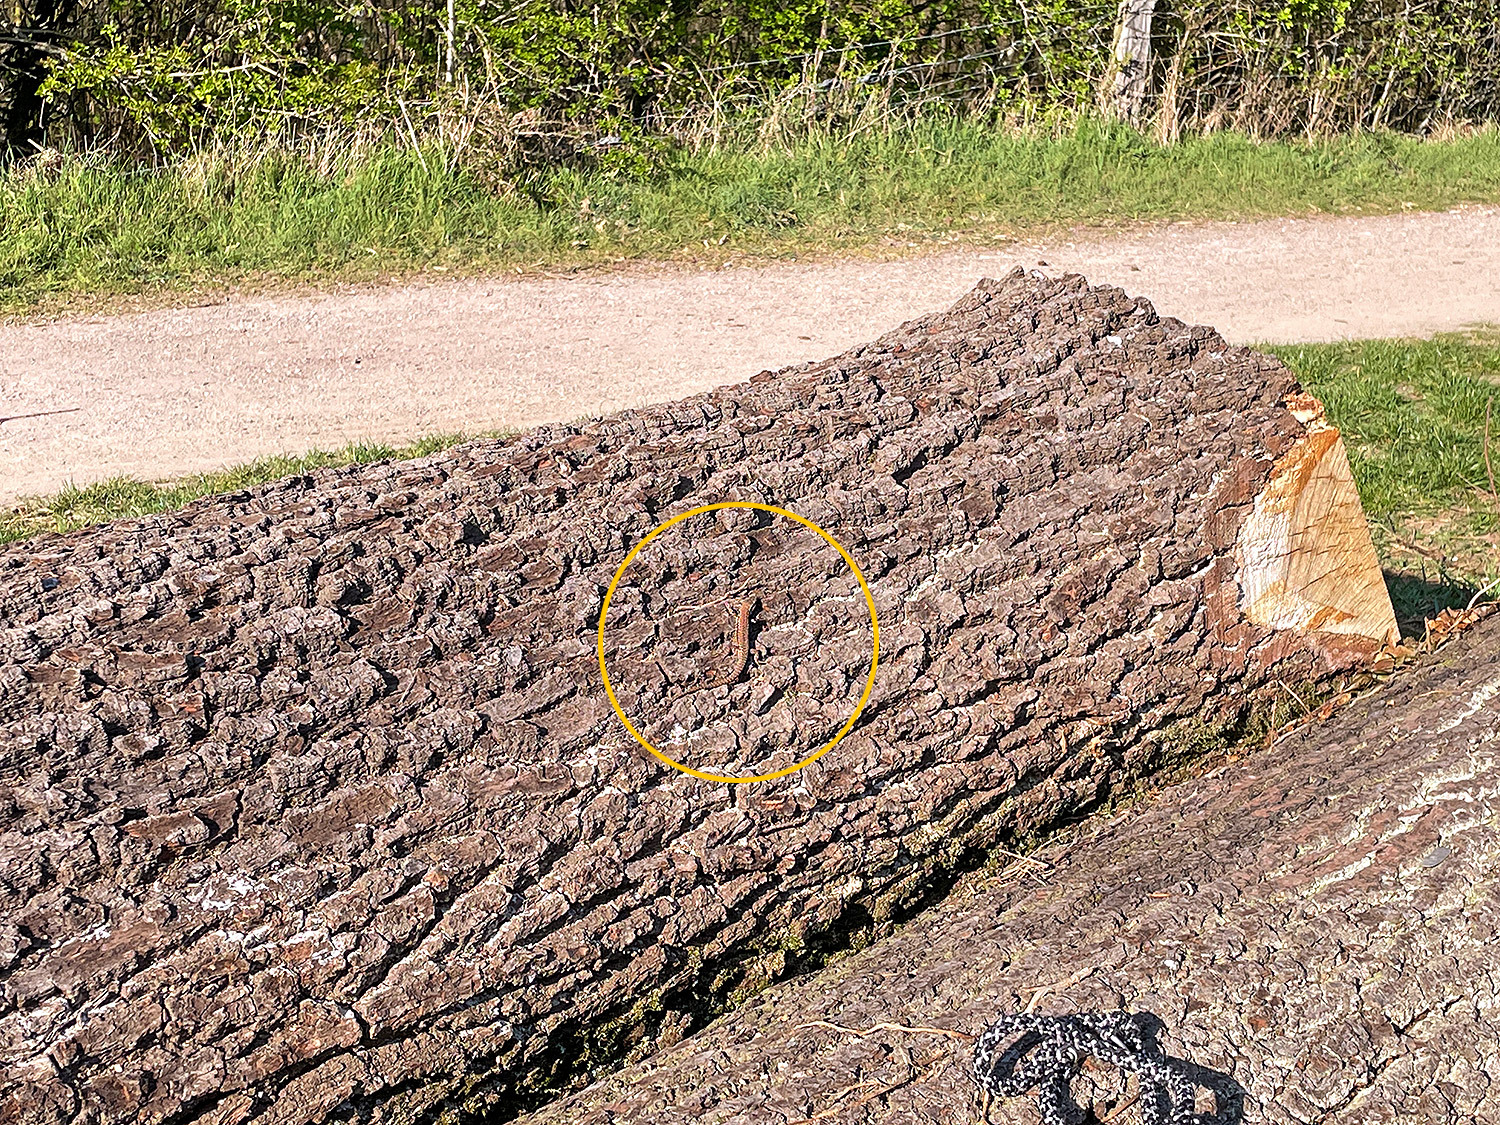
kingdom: Animalia
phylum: Chordata
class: Squamata
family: Lacertidae
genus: Podarcis
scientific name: Podarcis muralis
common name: Common wall lizard
